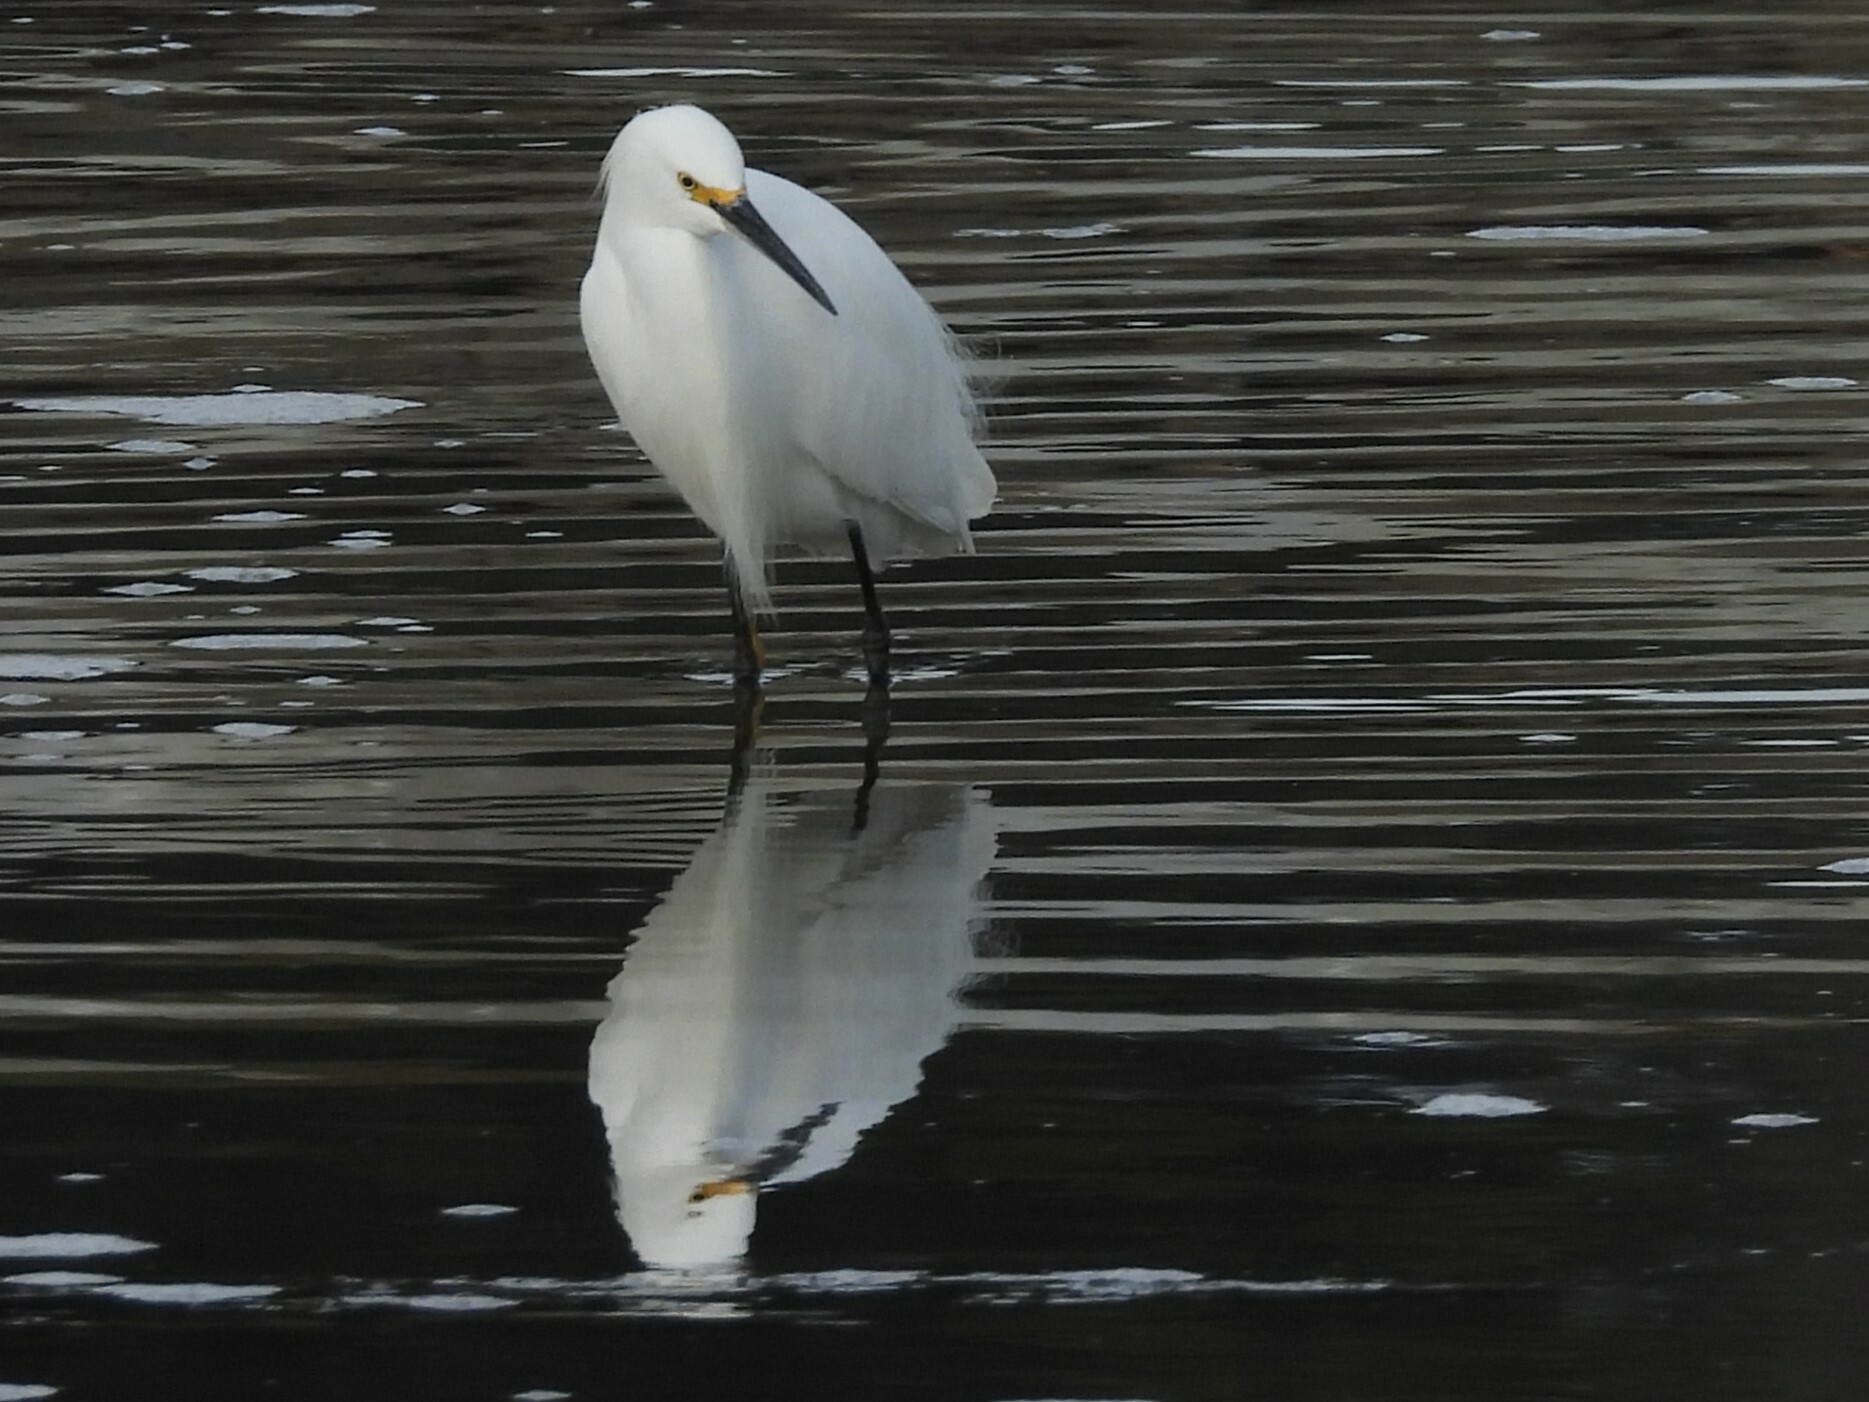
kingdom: Animalia
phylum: Chordata
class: Aves
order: Pelecaniformes
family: Ardeidae
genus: Egretta
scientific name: Egretta thula
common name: Snowy egret
